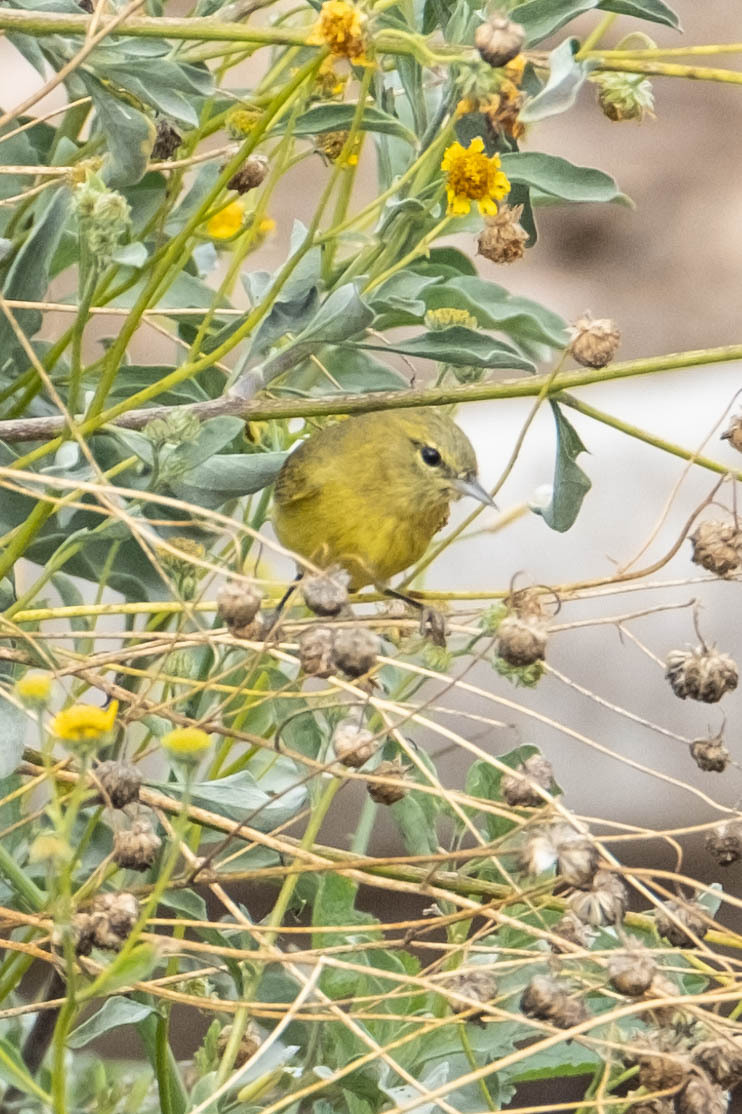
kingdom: Animalia
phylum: Chordata
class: Aves
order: Passeriformes
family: Parulidae
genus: Leiothlypis
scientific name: Leiothlypis celata
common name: Orange-crowned warbler
